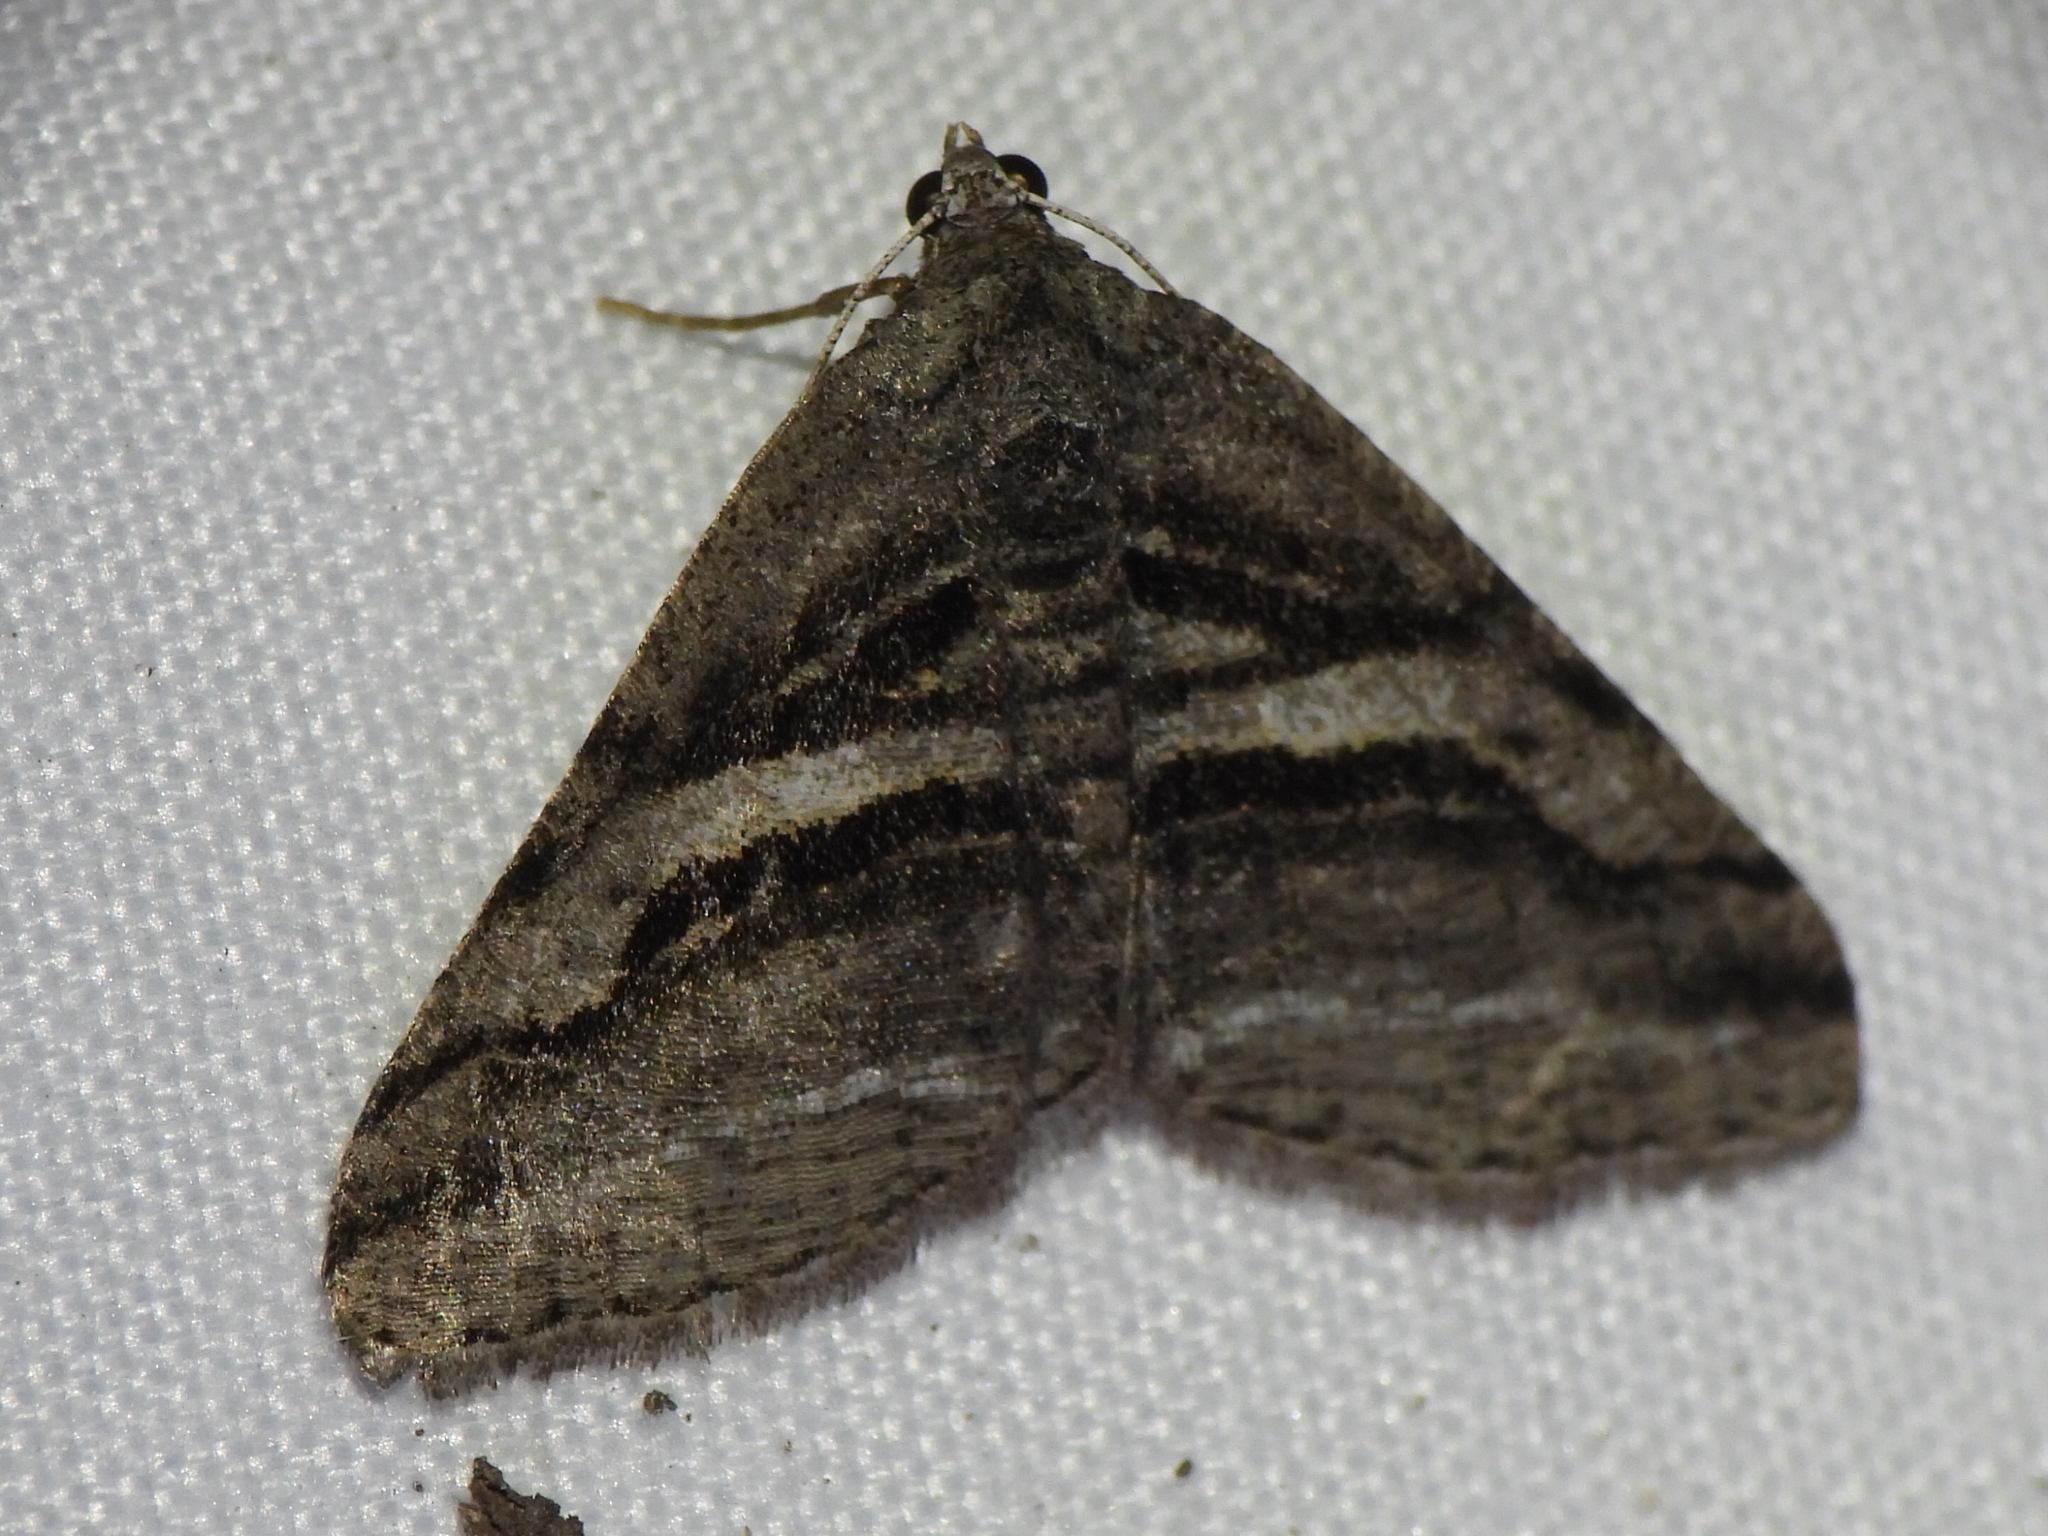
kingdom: Animalia
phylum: Arthropoda
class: Insecta
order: Lepidoptera
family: Geometridae
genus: Digrammia
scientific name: Digrammia atrofasciata
